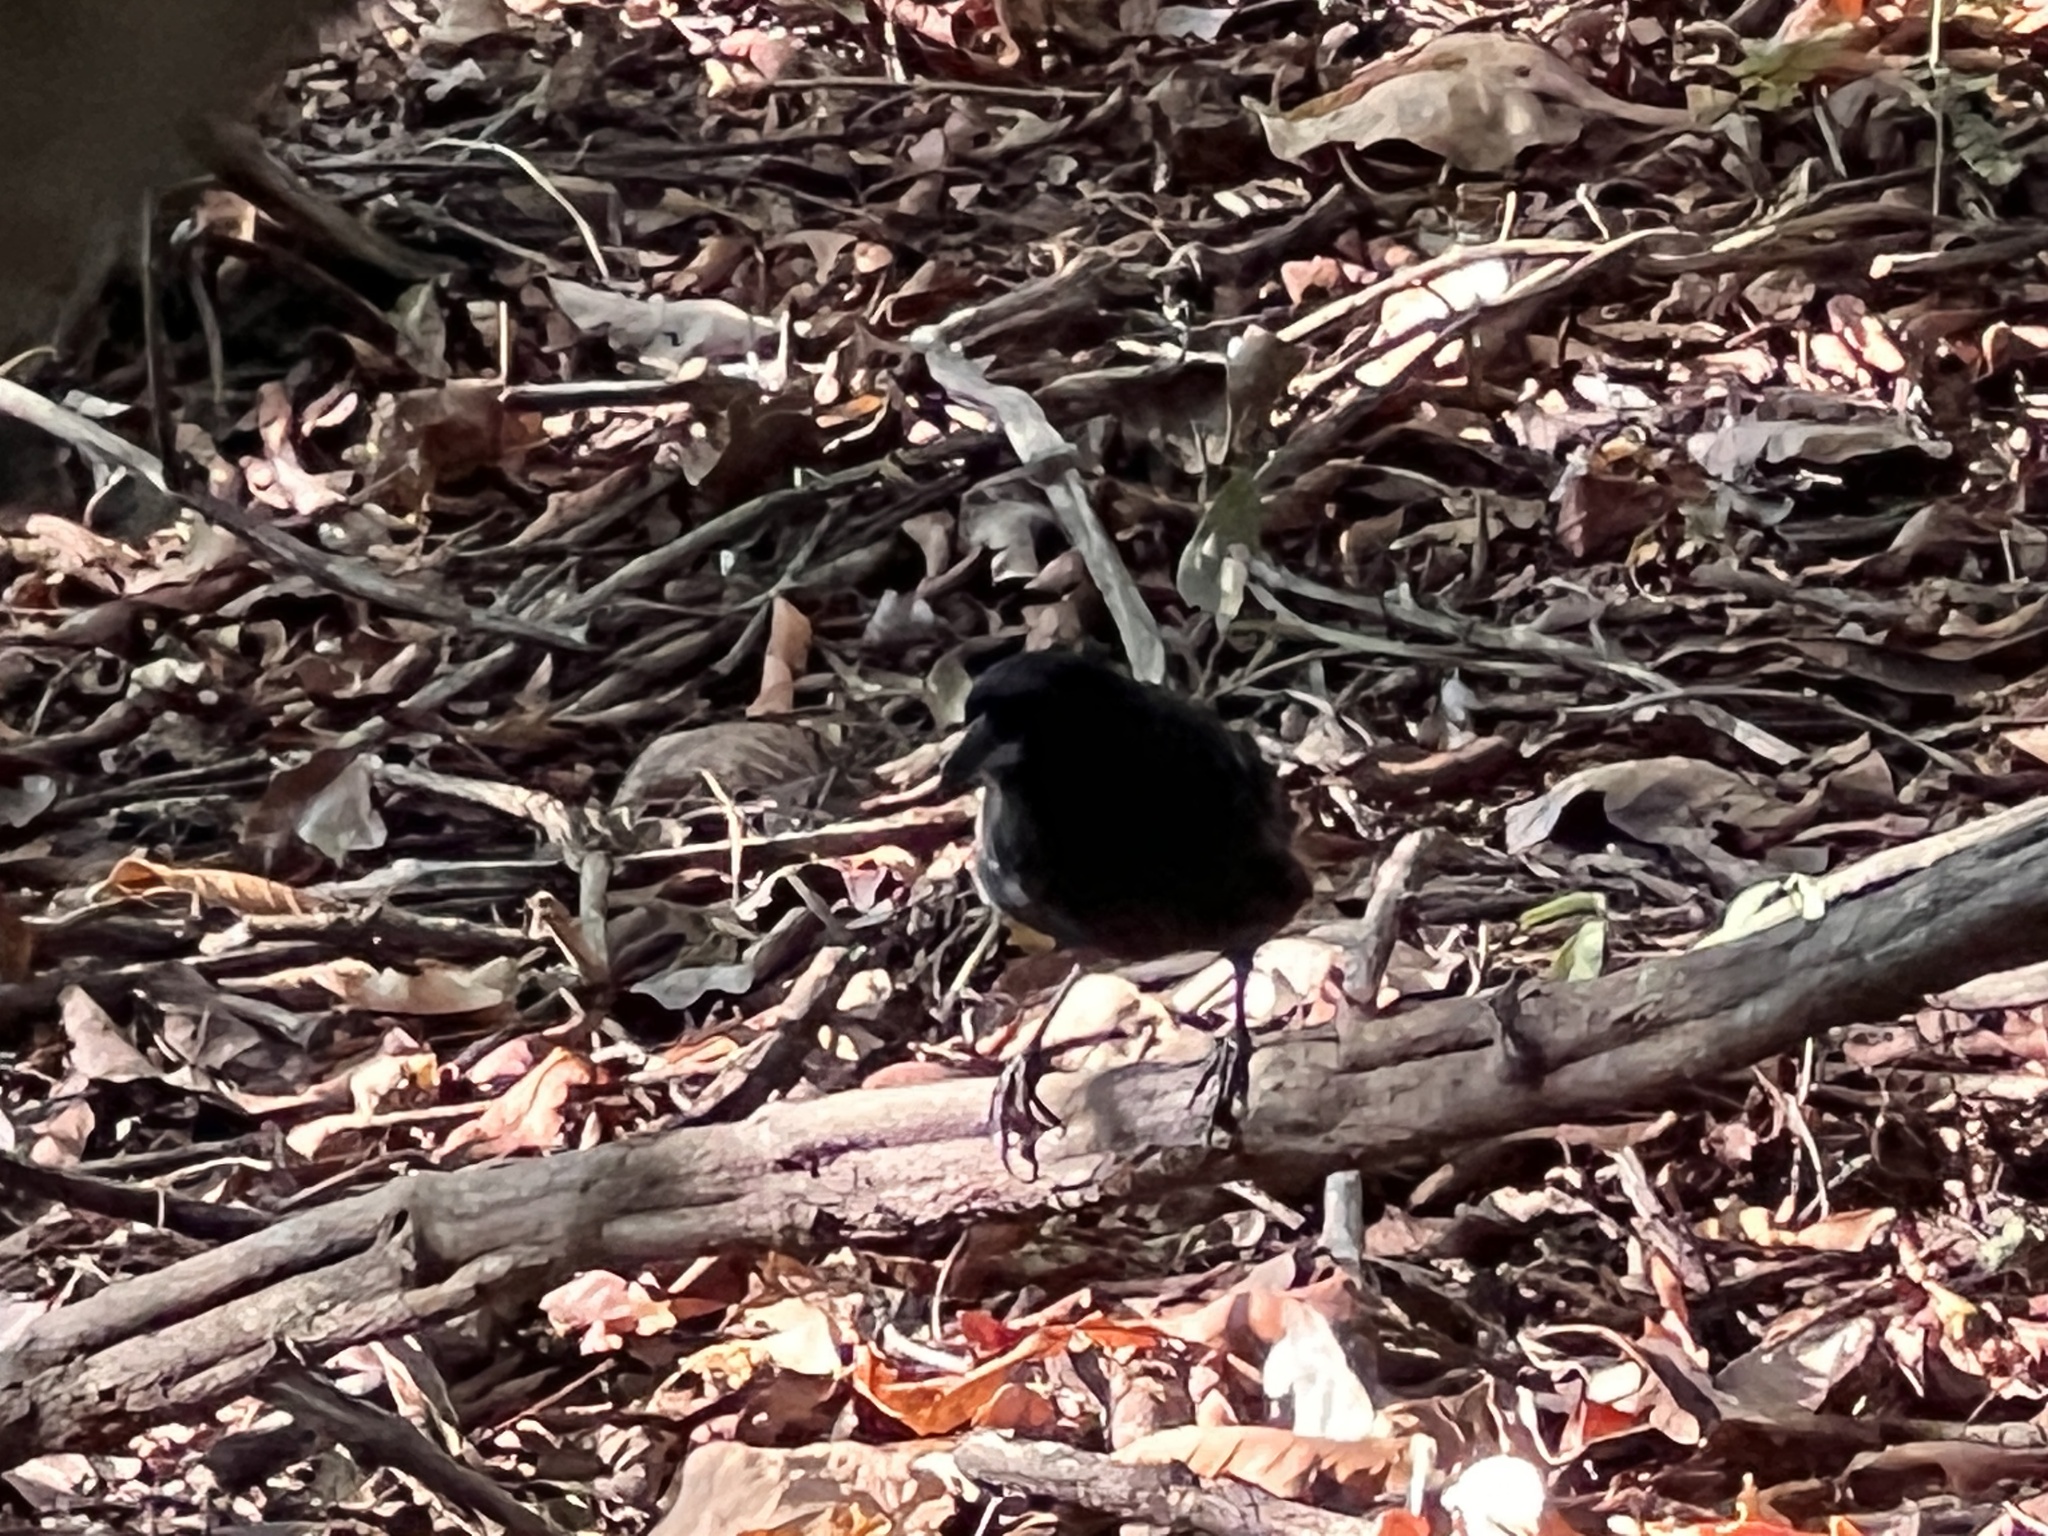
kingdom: Animalia
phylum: Chordata
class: Aves
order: Passeriformes
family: Thraupidae
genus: Tachyphonus
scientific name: Tachyphonus rufus
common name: White-lined tanager
